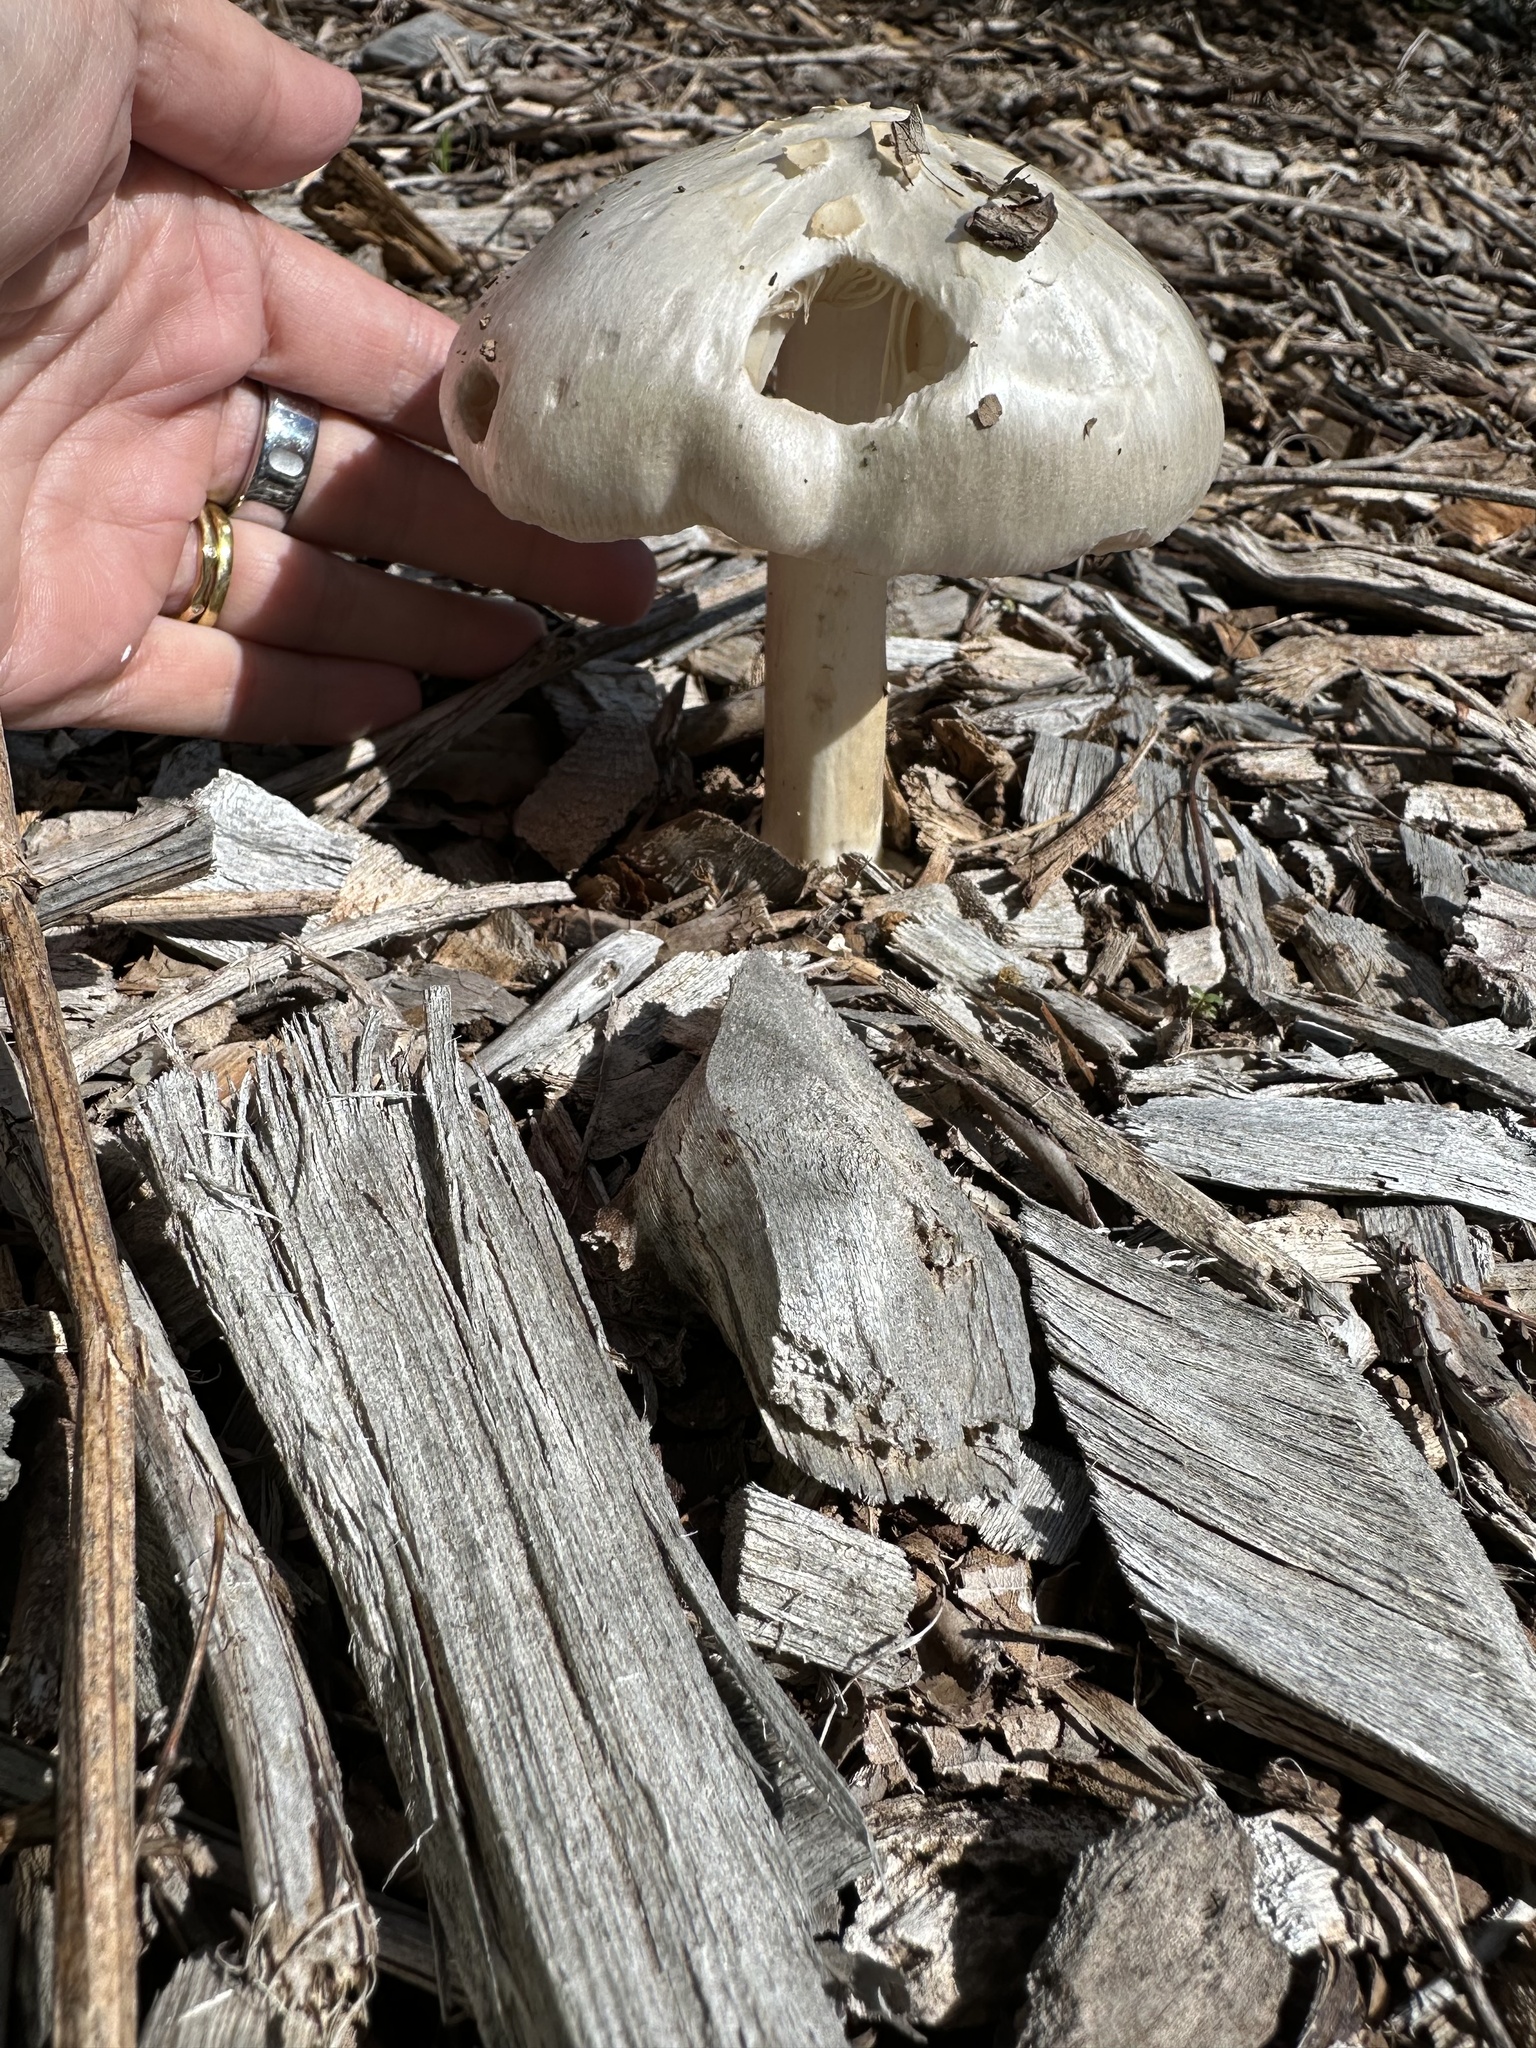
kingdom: Fungi
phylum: Basidiomycota
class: Agaricomycetes
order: Agaricales
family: Pluteaceae
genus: Volvopluteus
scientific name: Volvopluteus gloiocephalus
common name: Stubble rosegill
